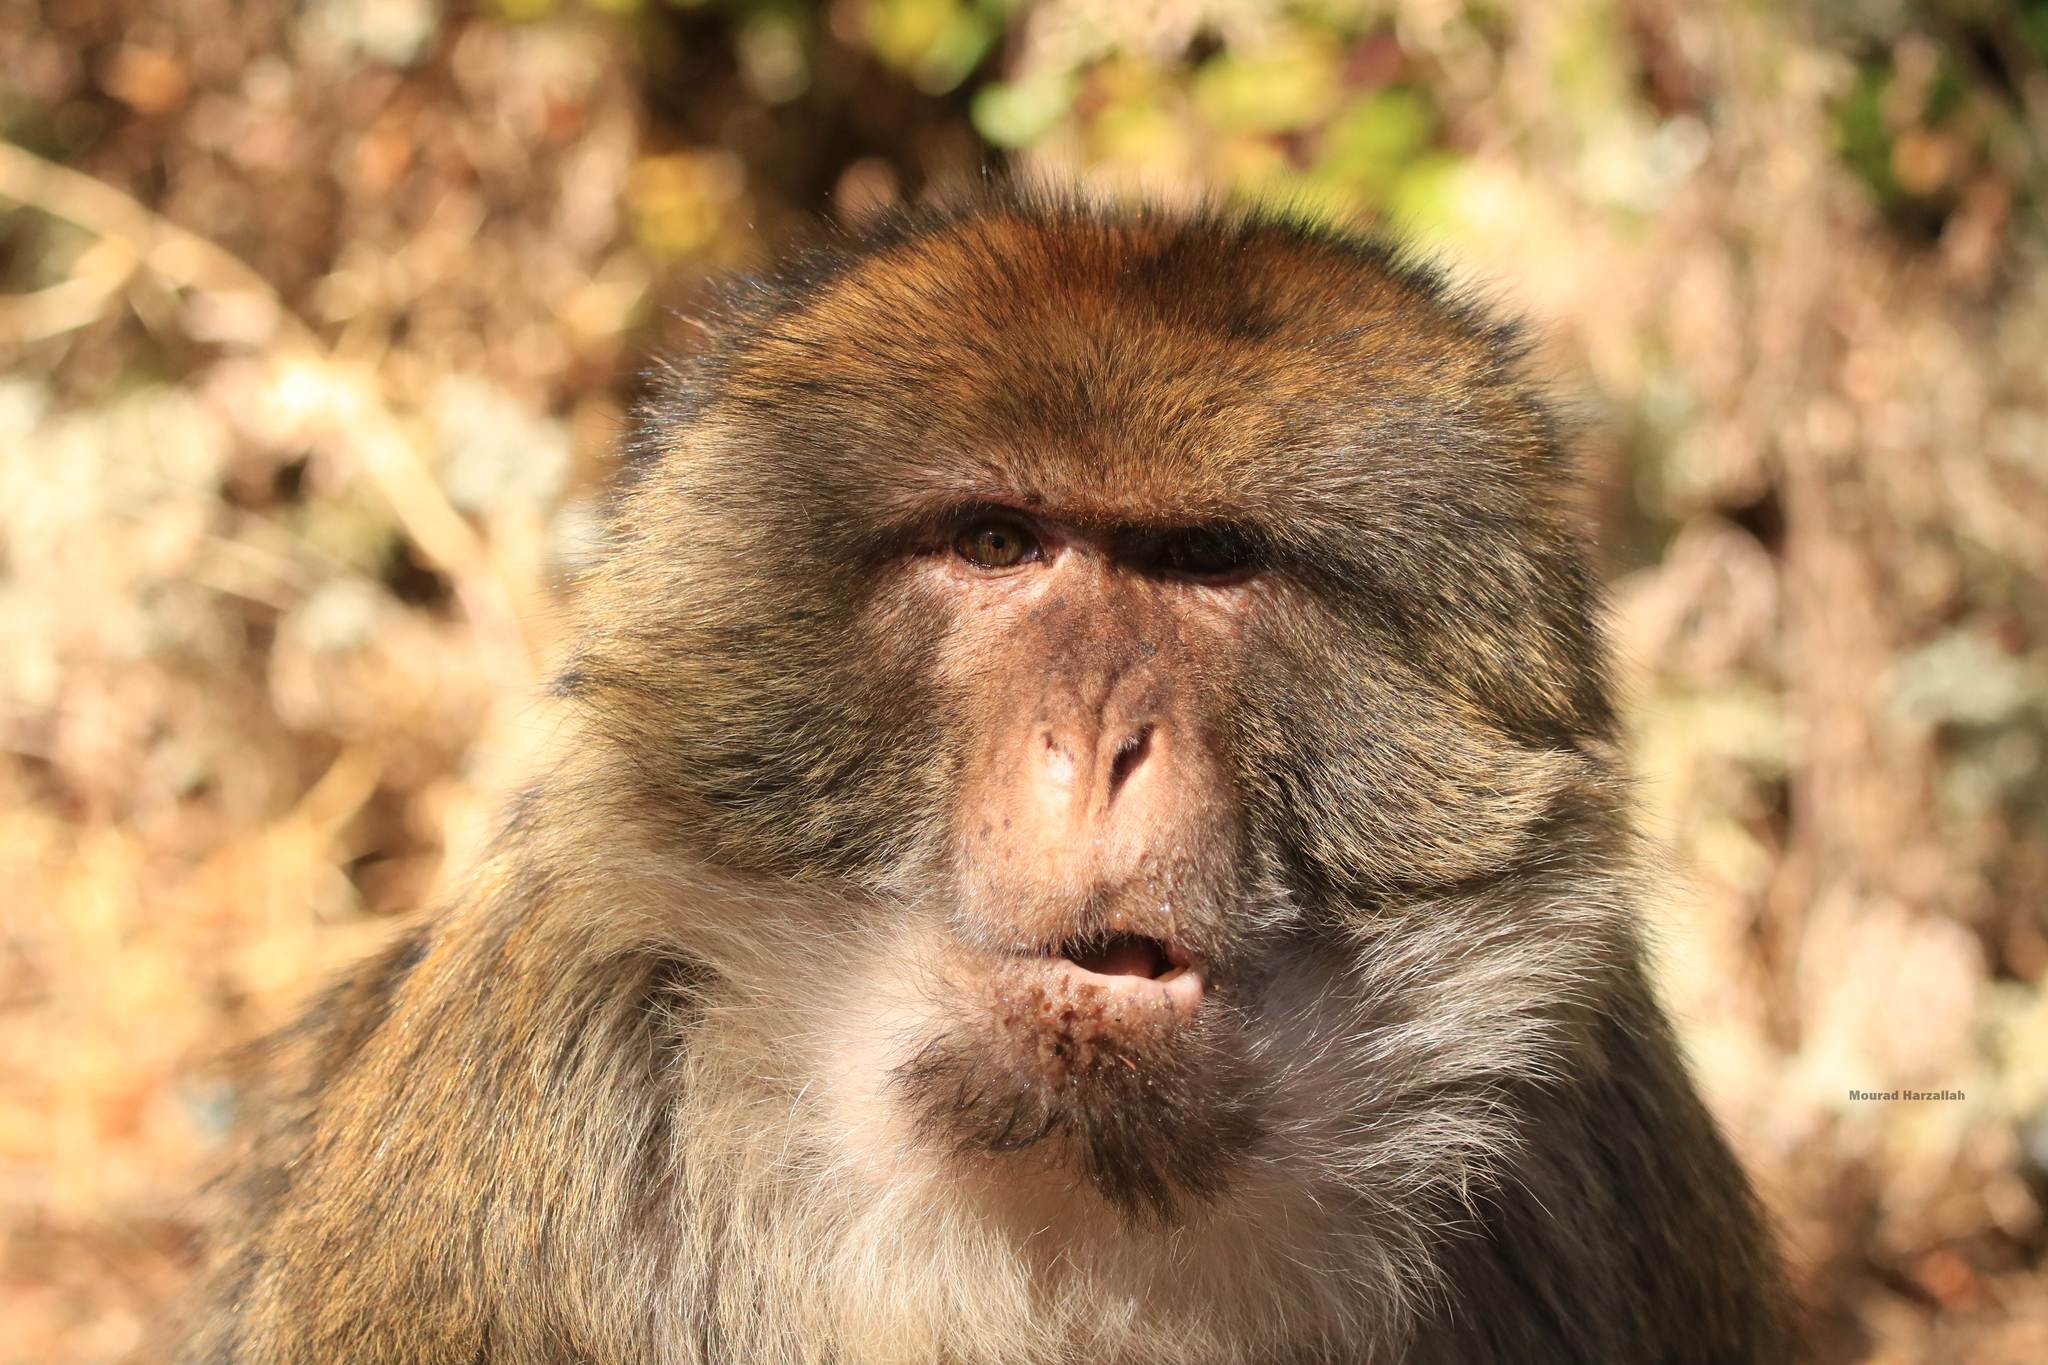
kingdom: Animalia
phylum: Chordata
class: Mammalia
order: Primates
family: Cercopithecidae
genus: Macaca
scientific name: Macaca sylvanus
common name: Barbary macaque
